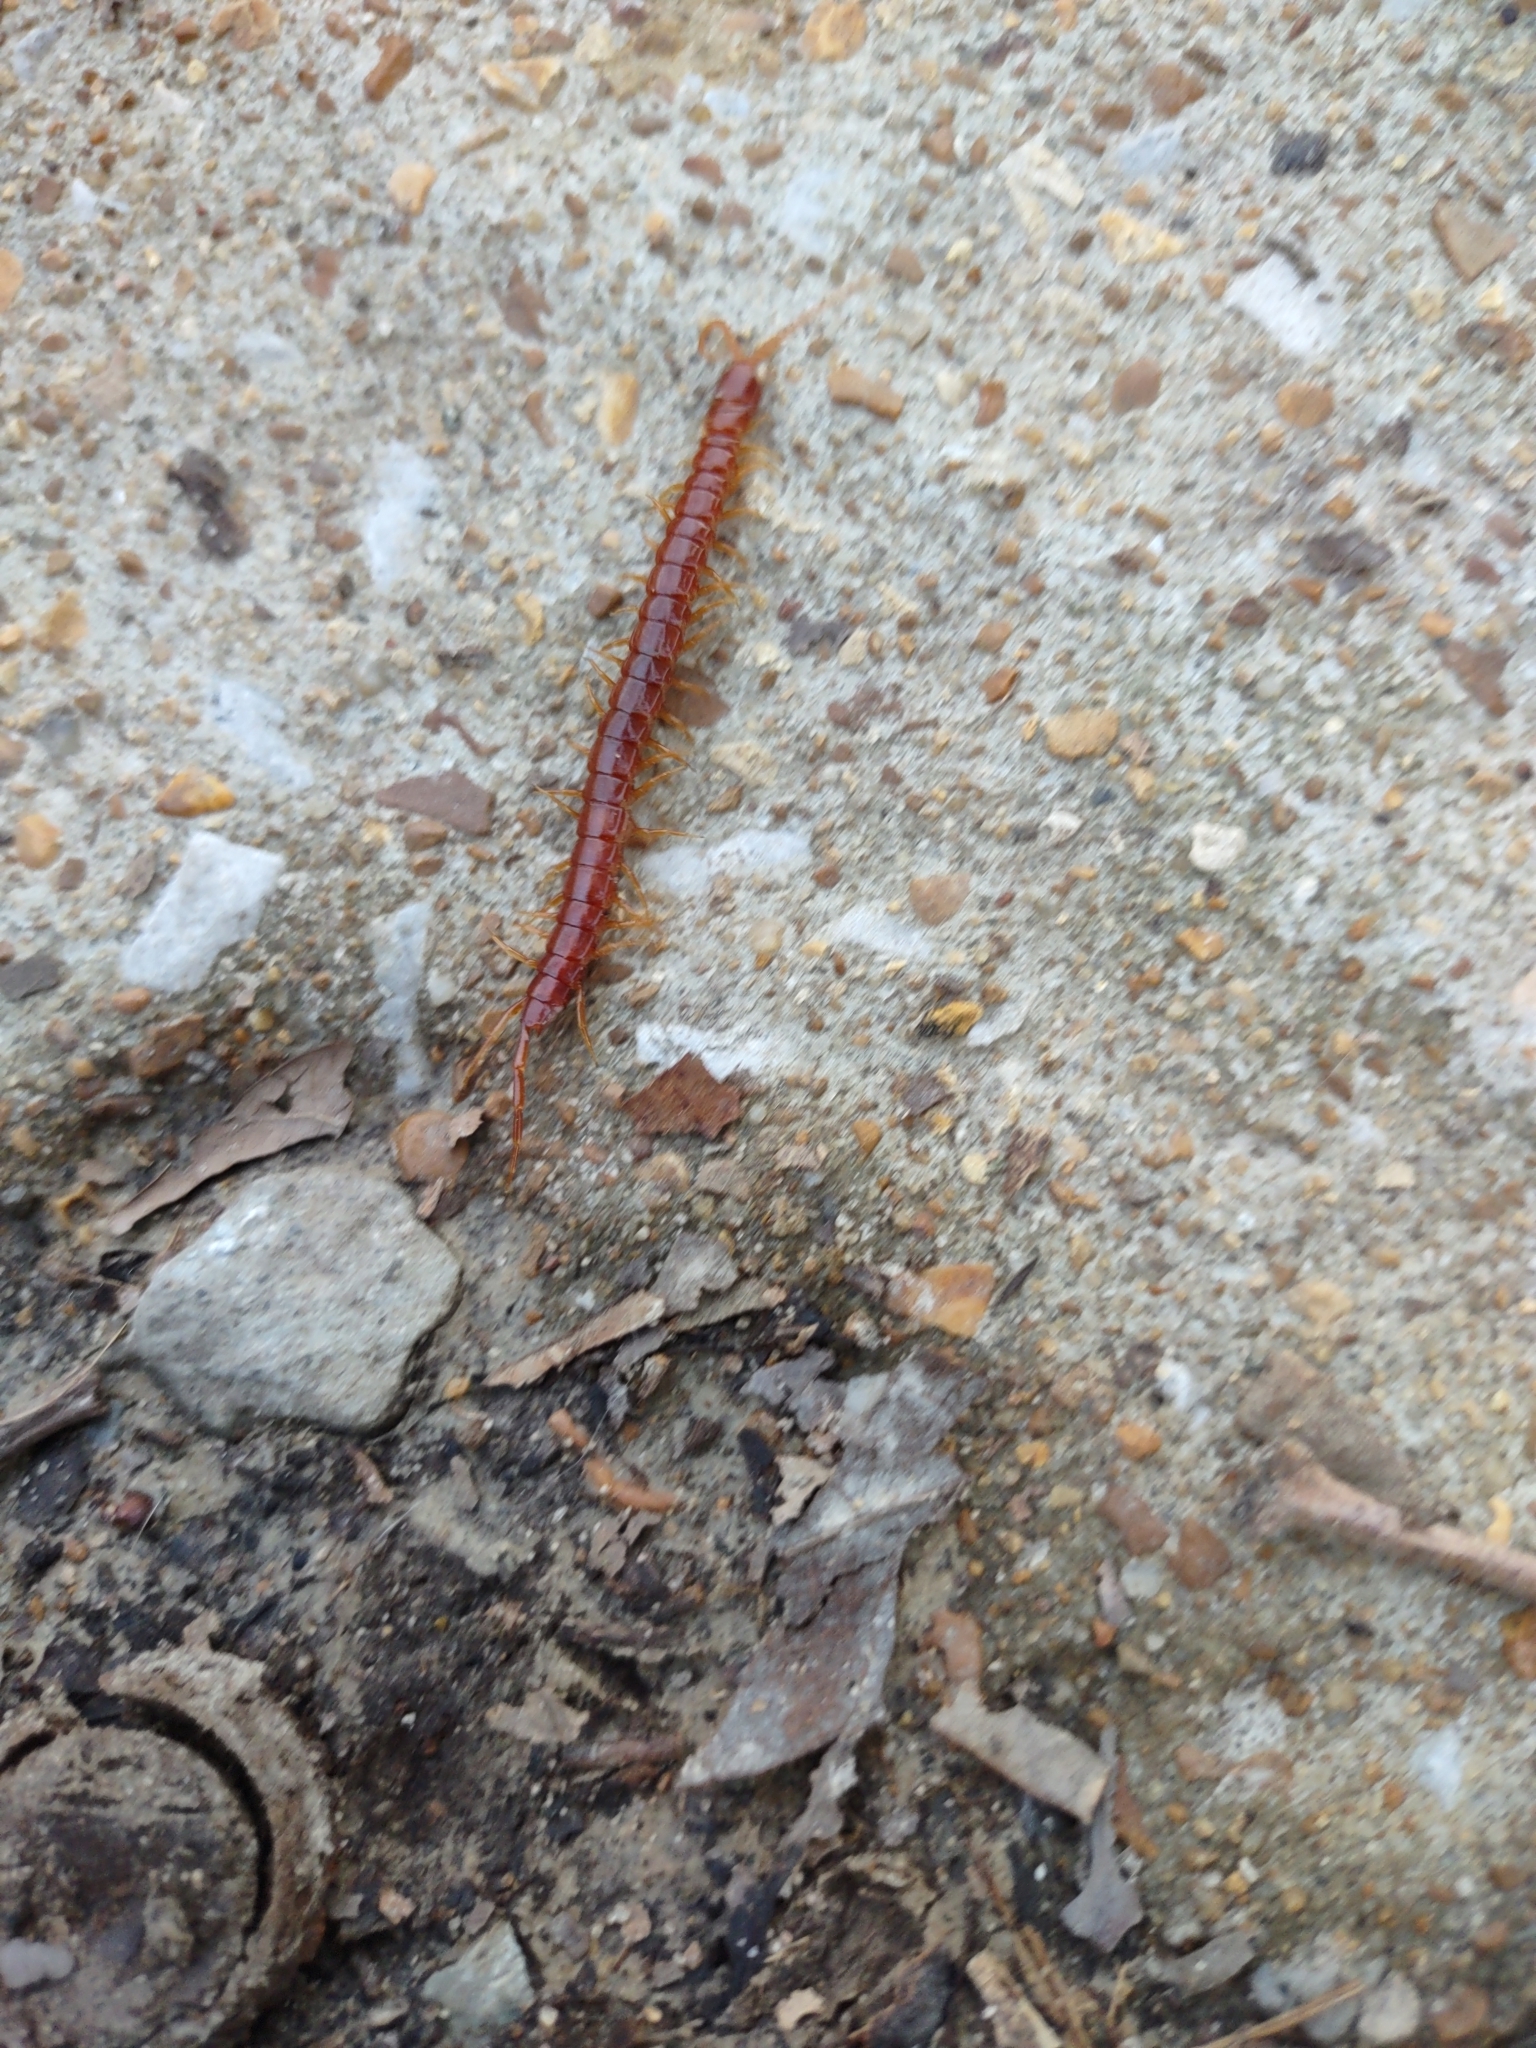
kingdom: Animalia
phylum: Arthropoda
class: Chilopoda
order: Scolopendromorpha
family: Scolopocryptopidae
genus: Scolopocryptops
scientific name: Scolopocryptops sexspinosus
